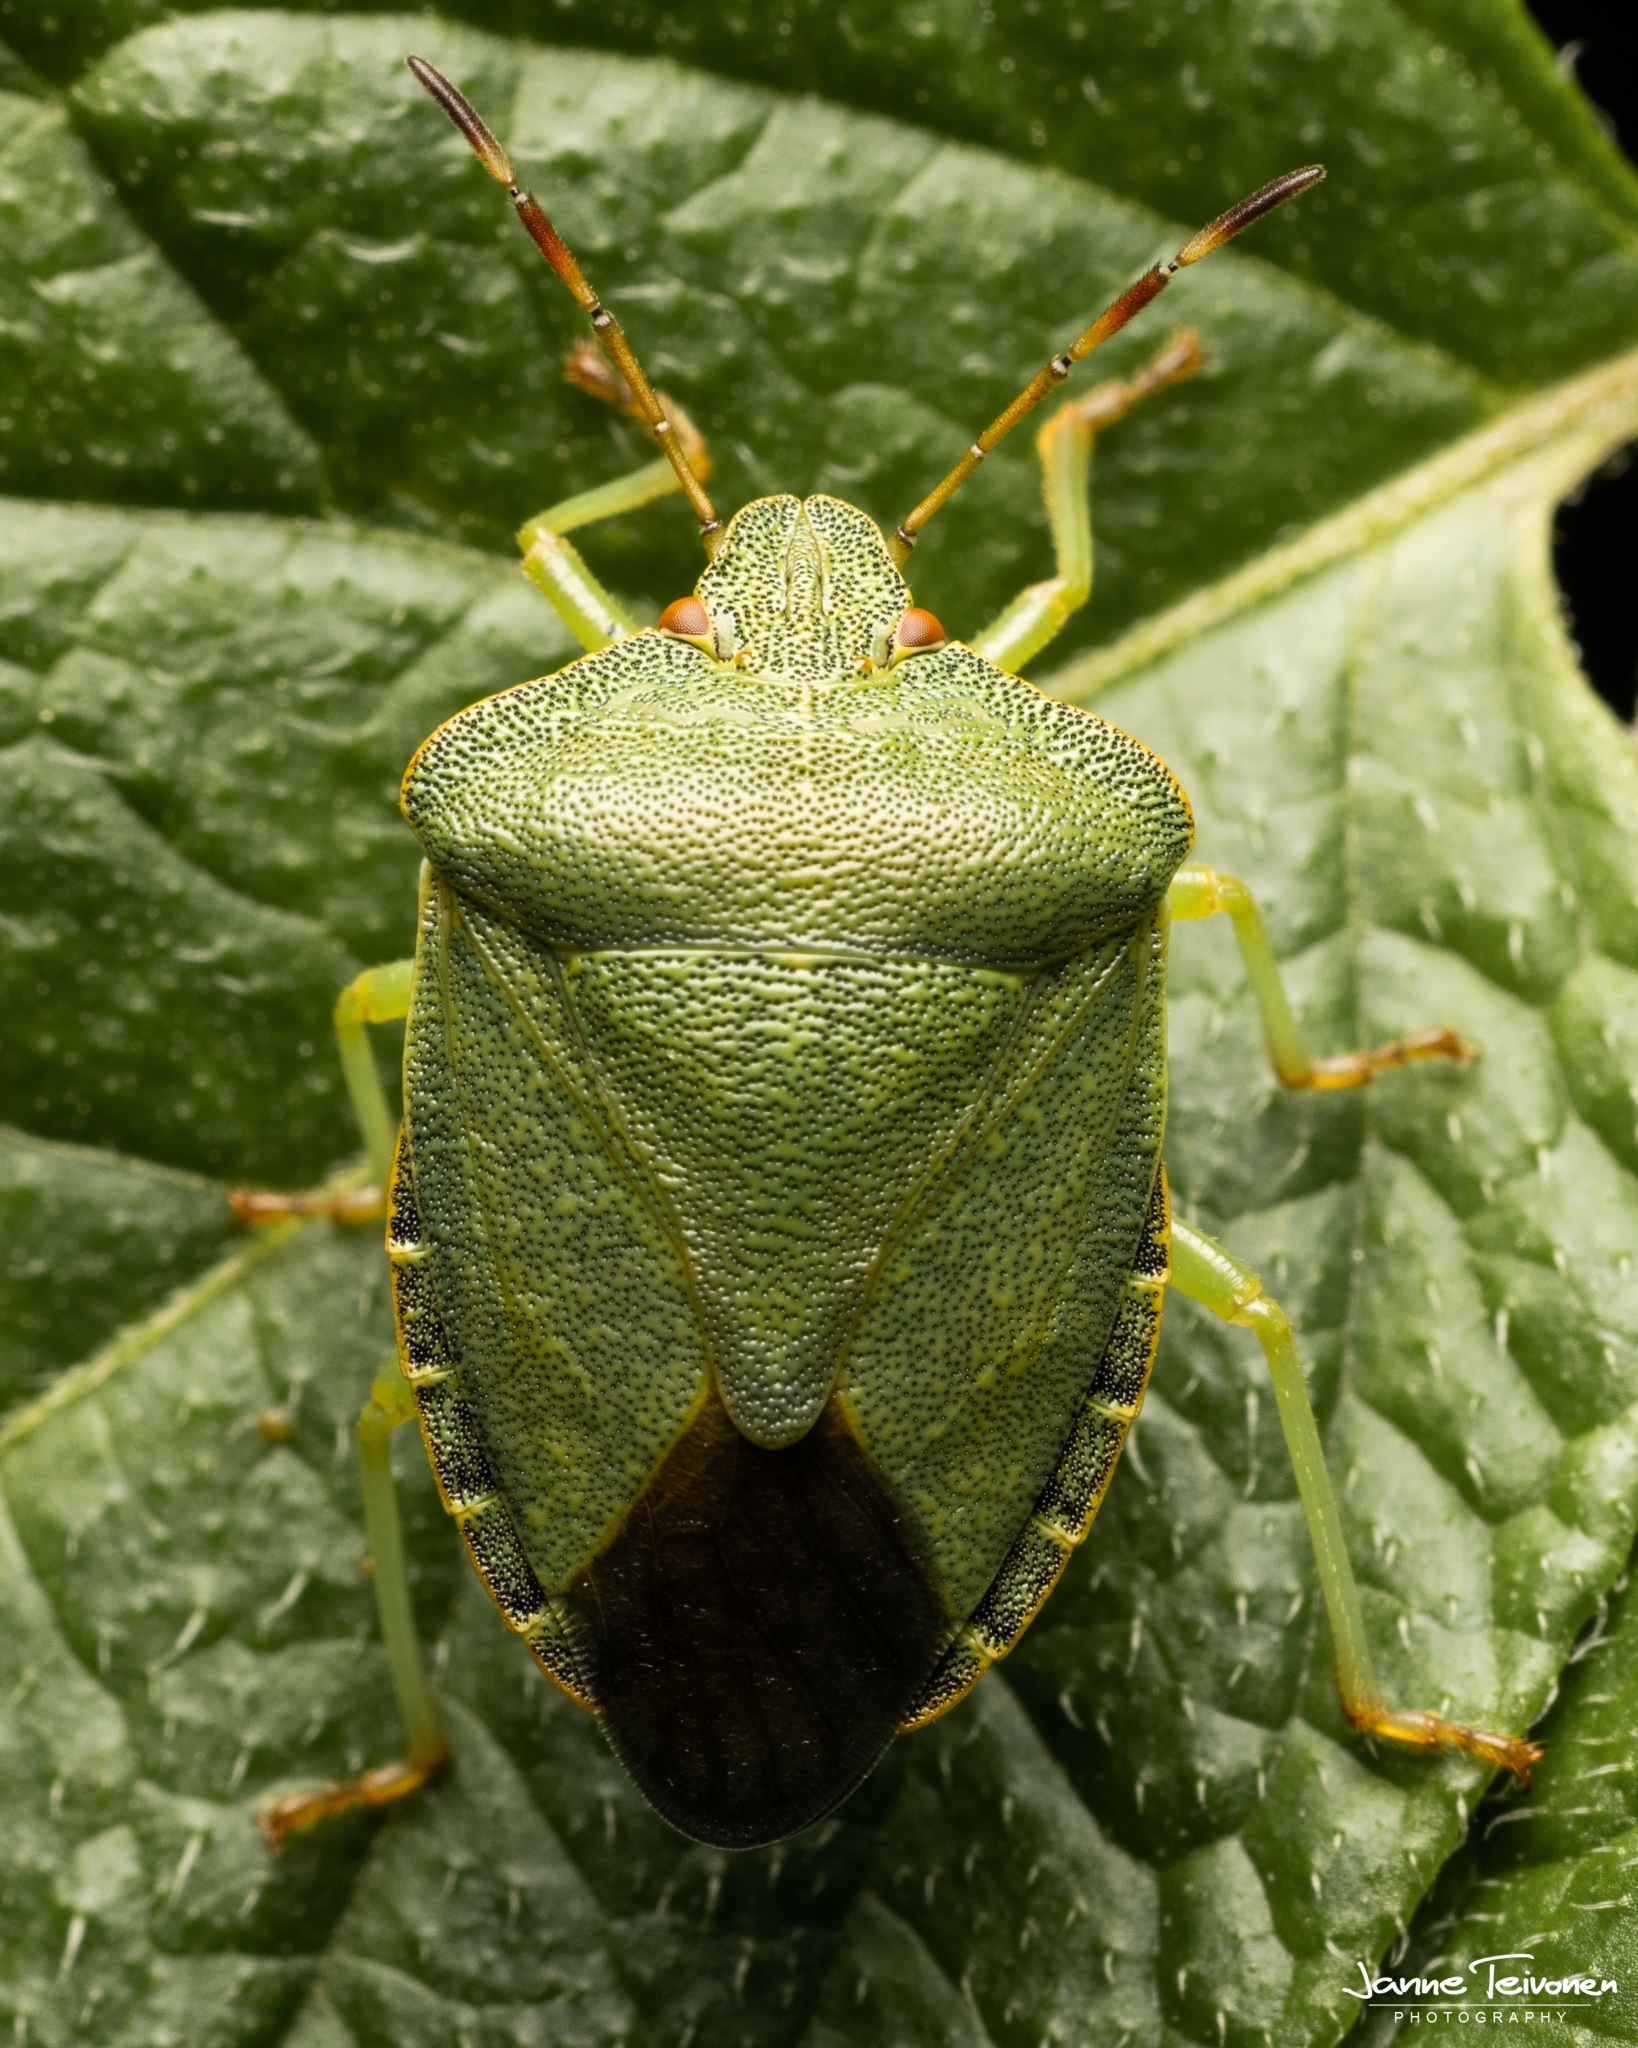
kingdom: Animalia
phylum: Arthropoda
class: Insecta
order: Hemiptera
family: Pentatomidae
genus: Palomena
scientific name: Palomena prasina
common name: Green shieldbug
